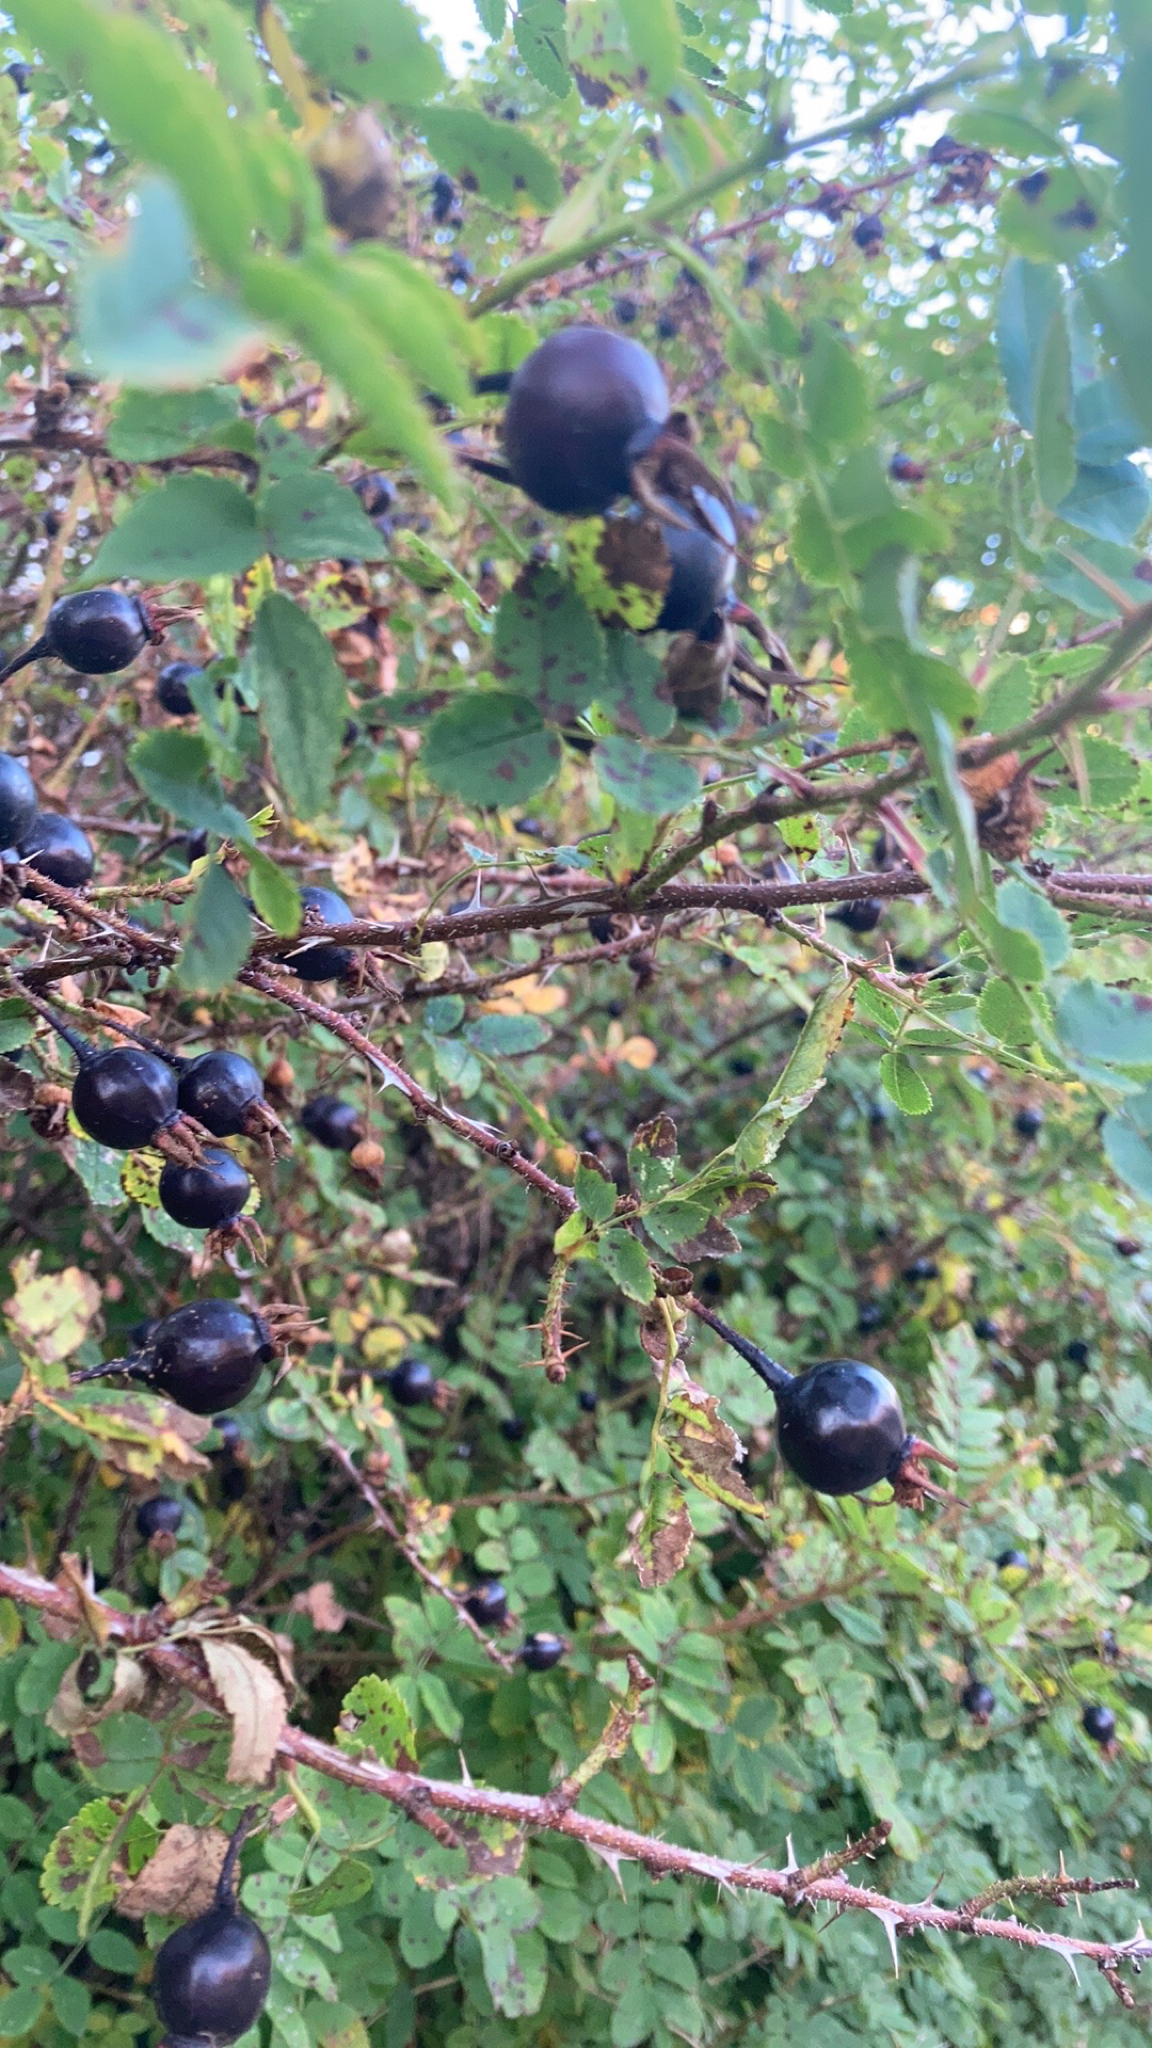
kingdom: Plantae
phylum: Tracheophyta
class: Magnoliopsida
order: Rosales
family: Rosaceae
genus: Rosa
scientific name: Rosa spinosissima
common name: Burnet rose
